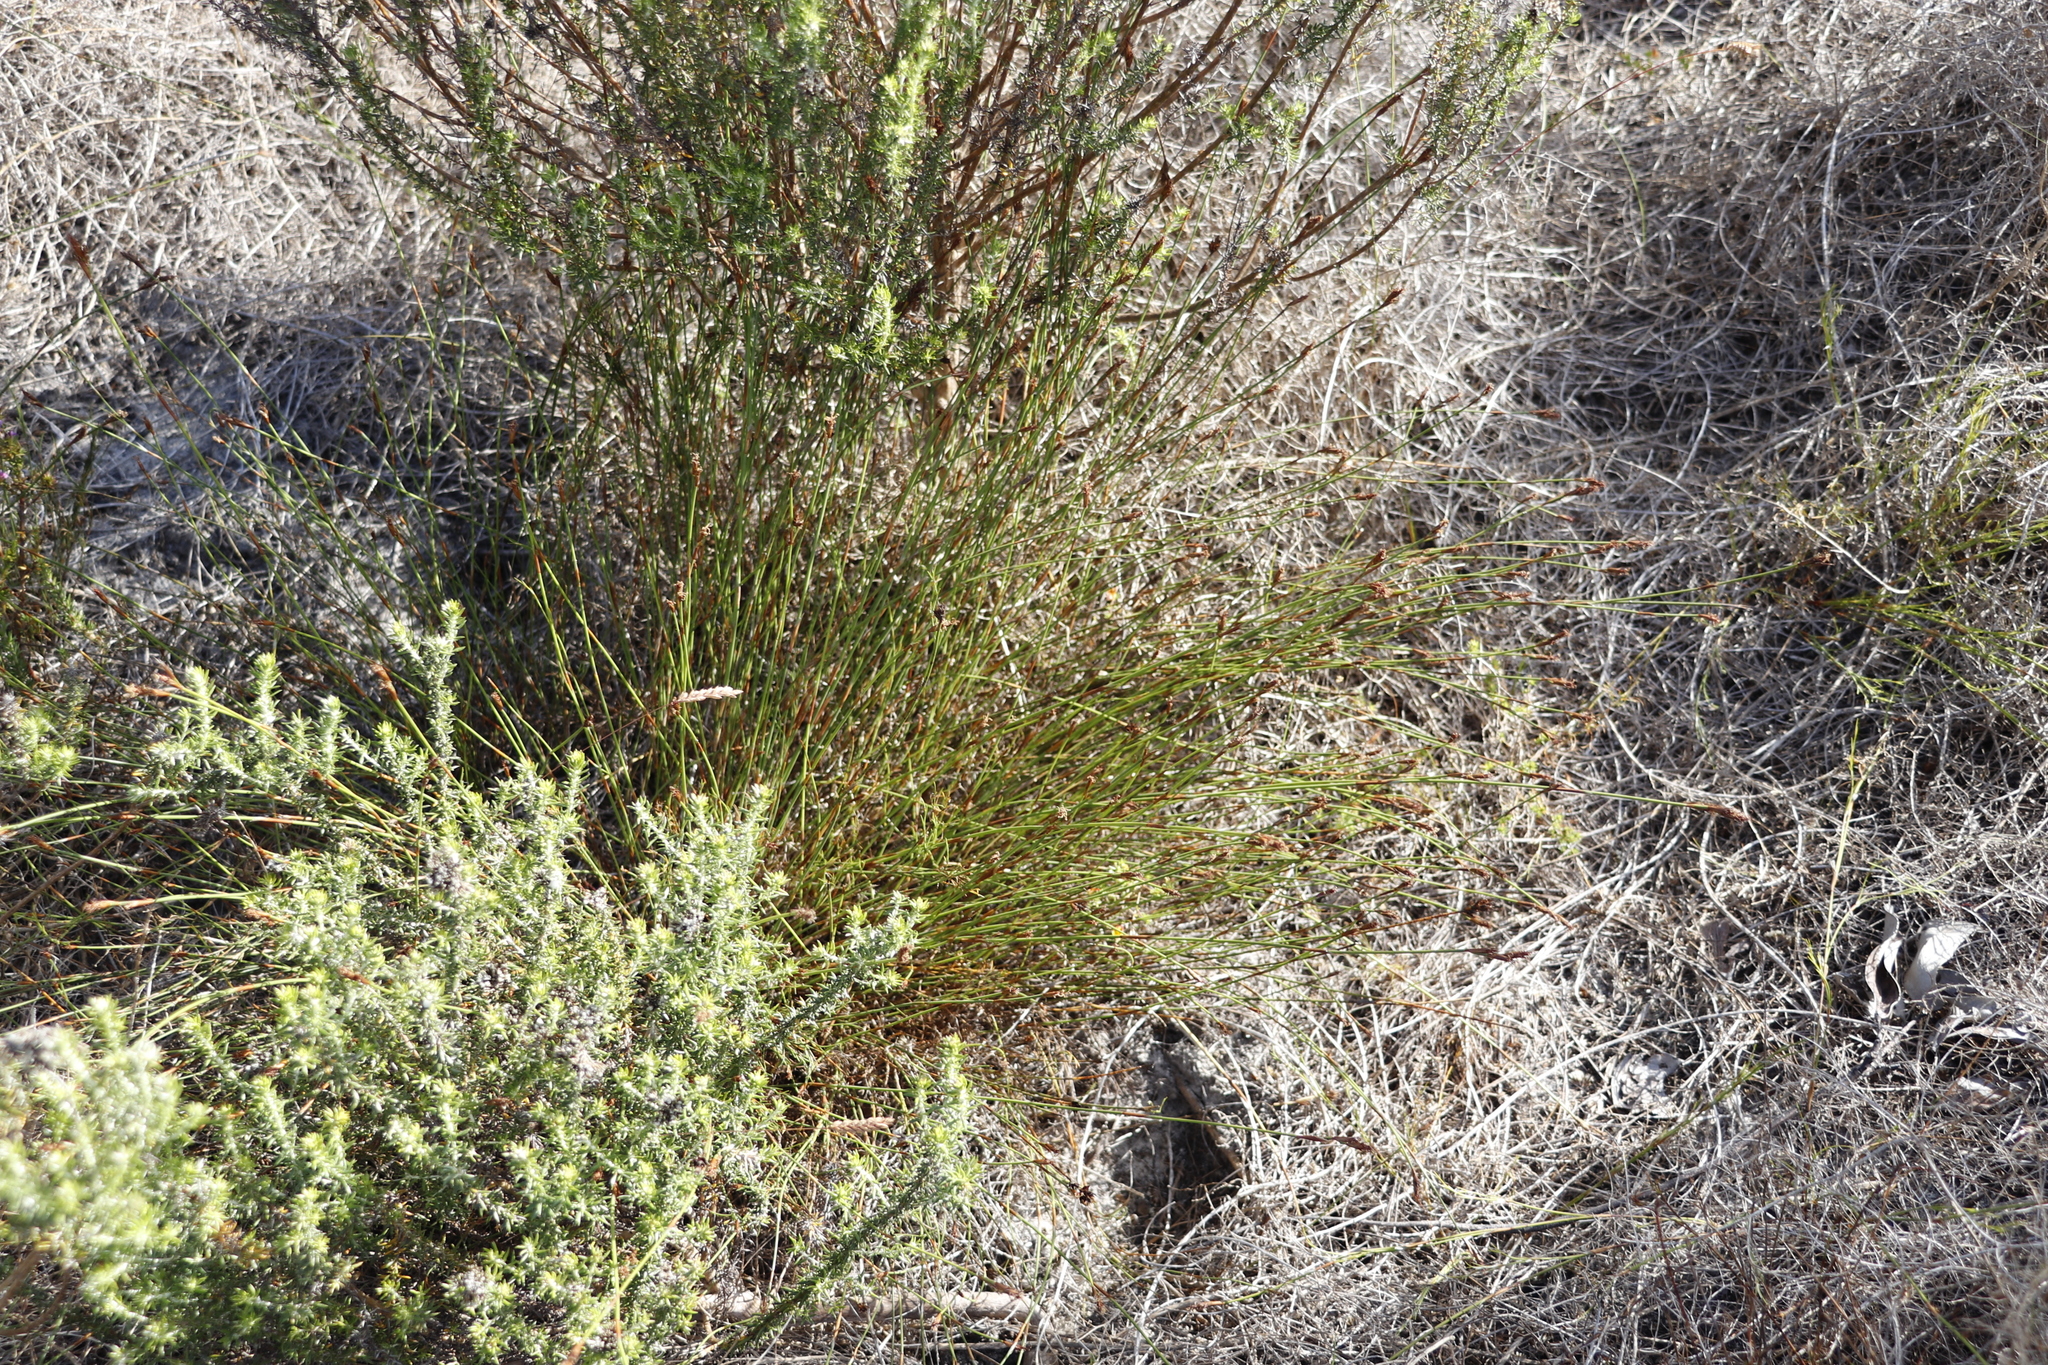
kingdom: Plantae
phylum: Tracheophyta
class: Liliopsida
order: Poales
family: Restionaceae
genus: Restio
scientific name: Restio capensis
